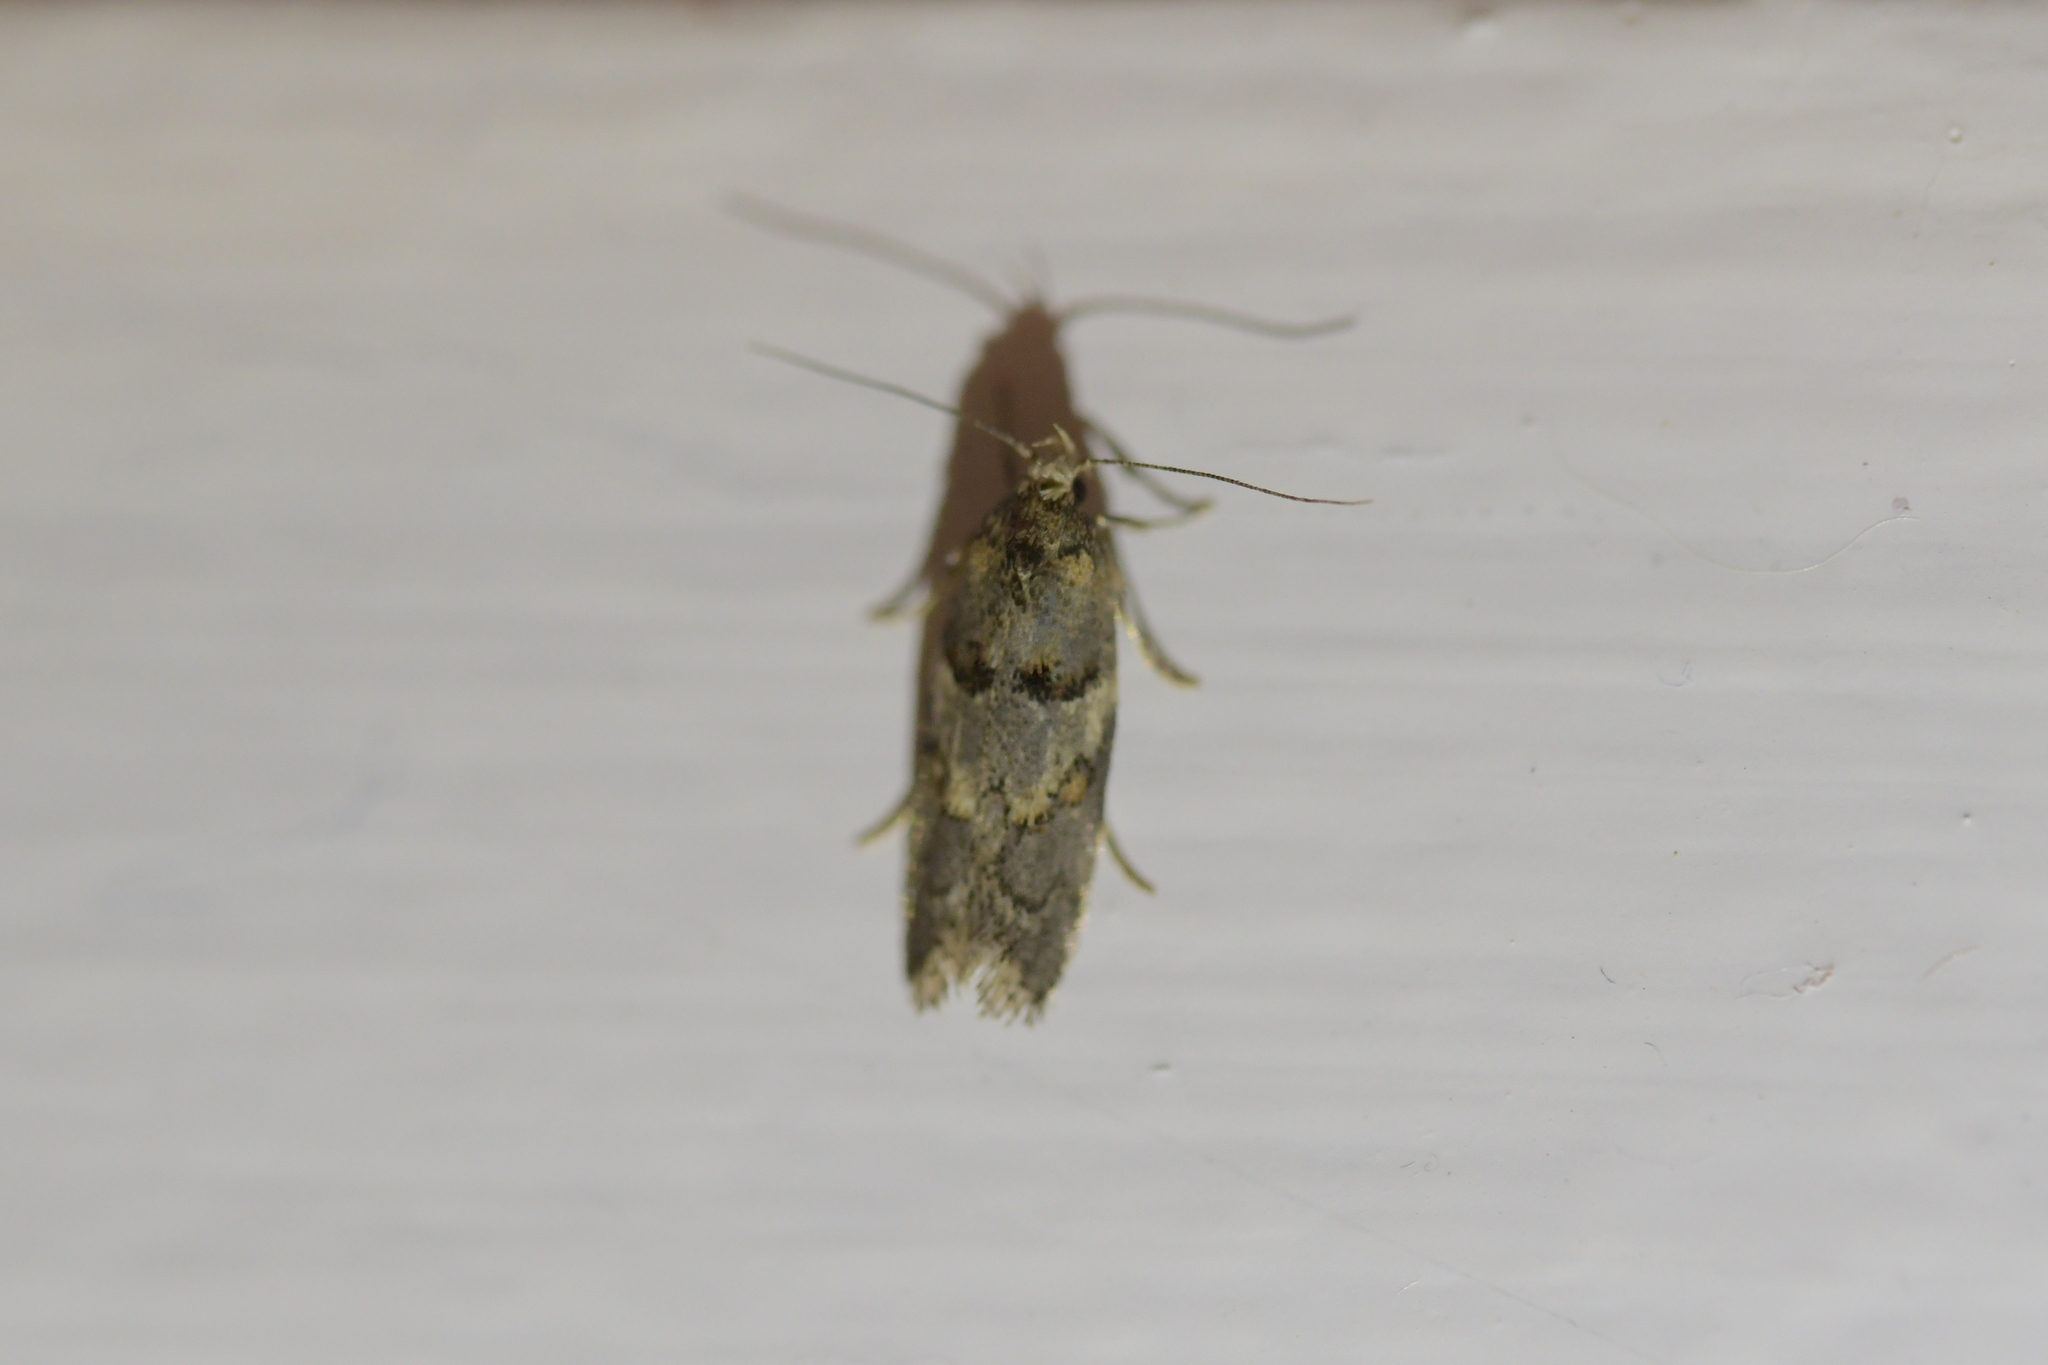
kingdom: Animalia
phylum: Arthropoda
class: Insecta
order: Lepidoptera
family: Oecophoridae
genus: Trachypepla
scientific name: Trachypepla contritella
